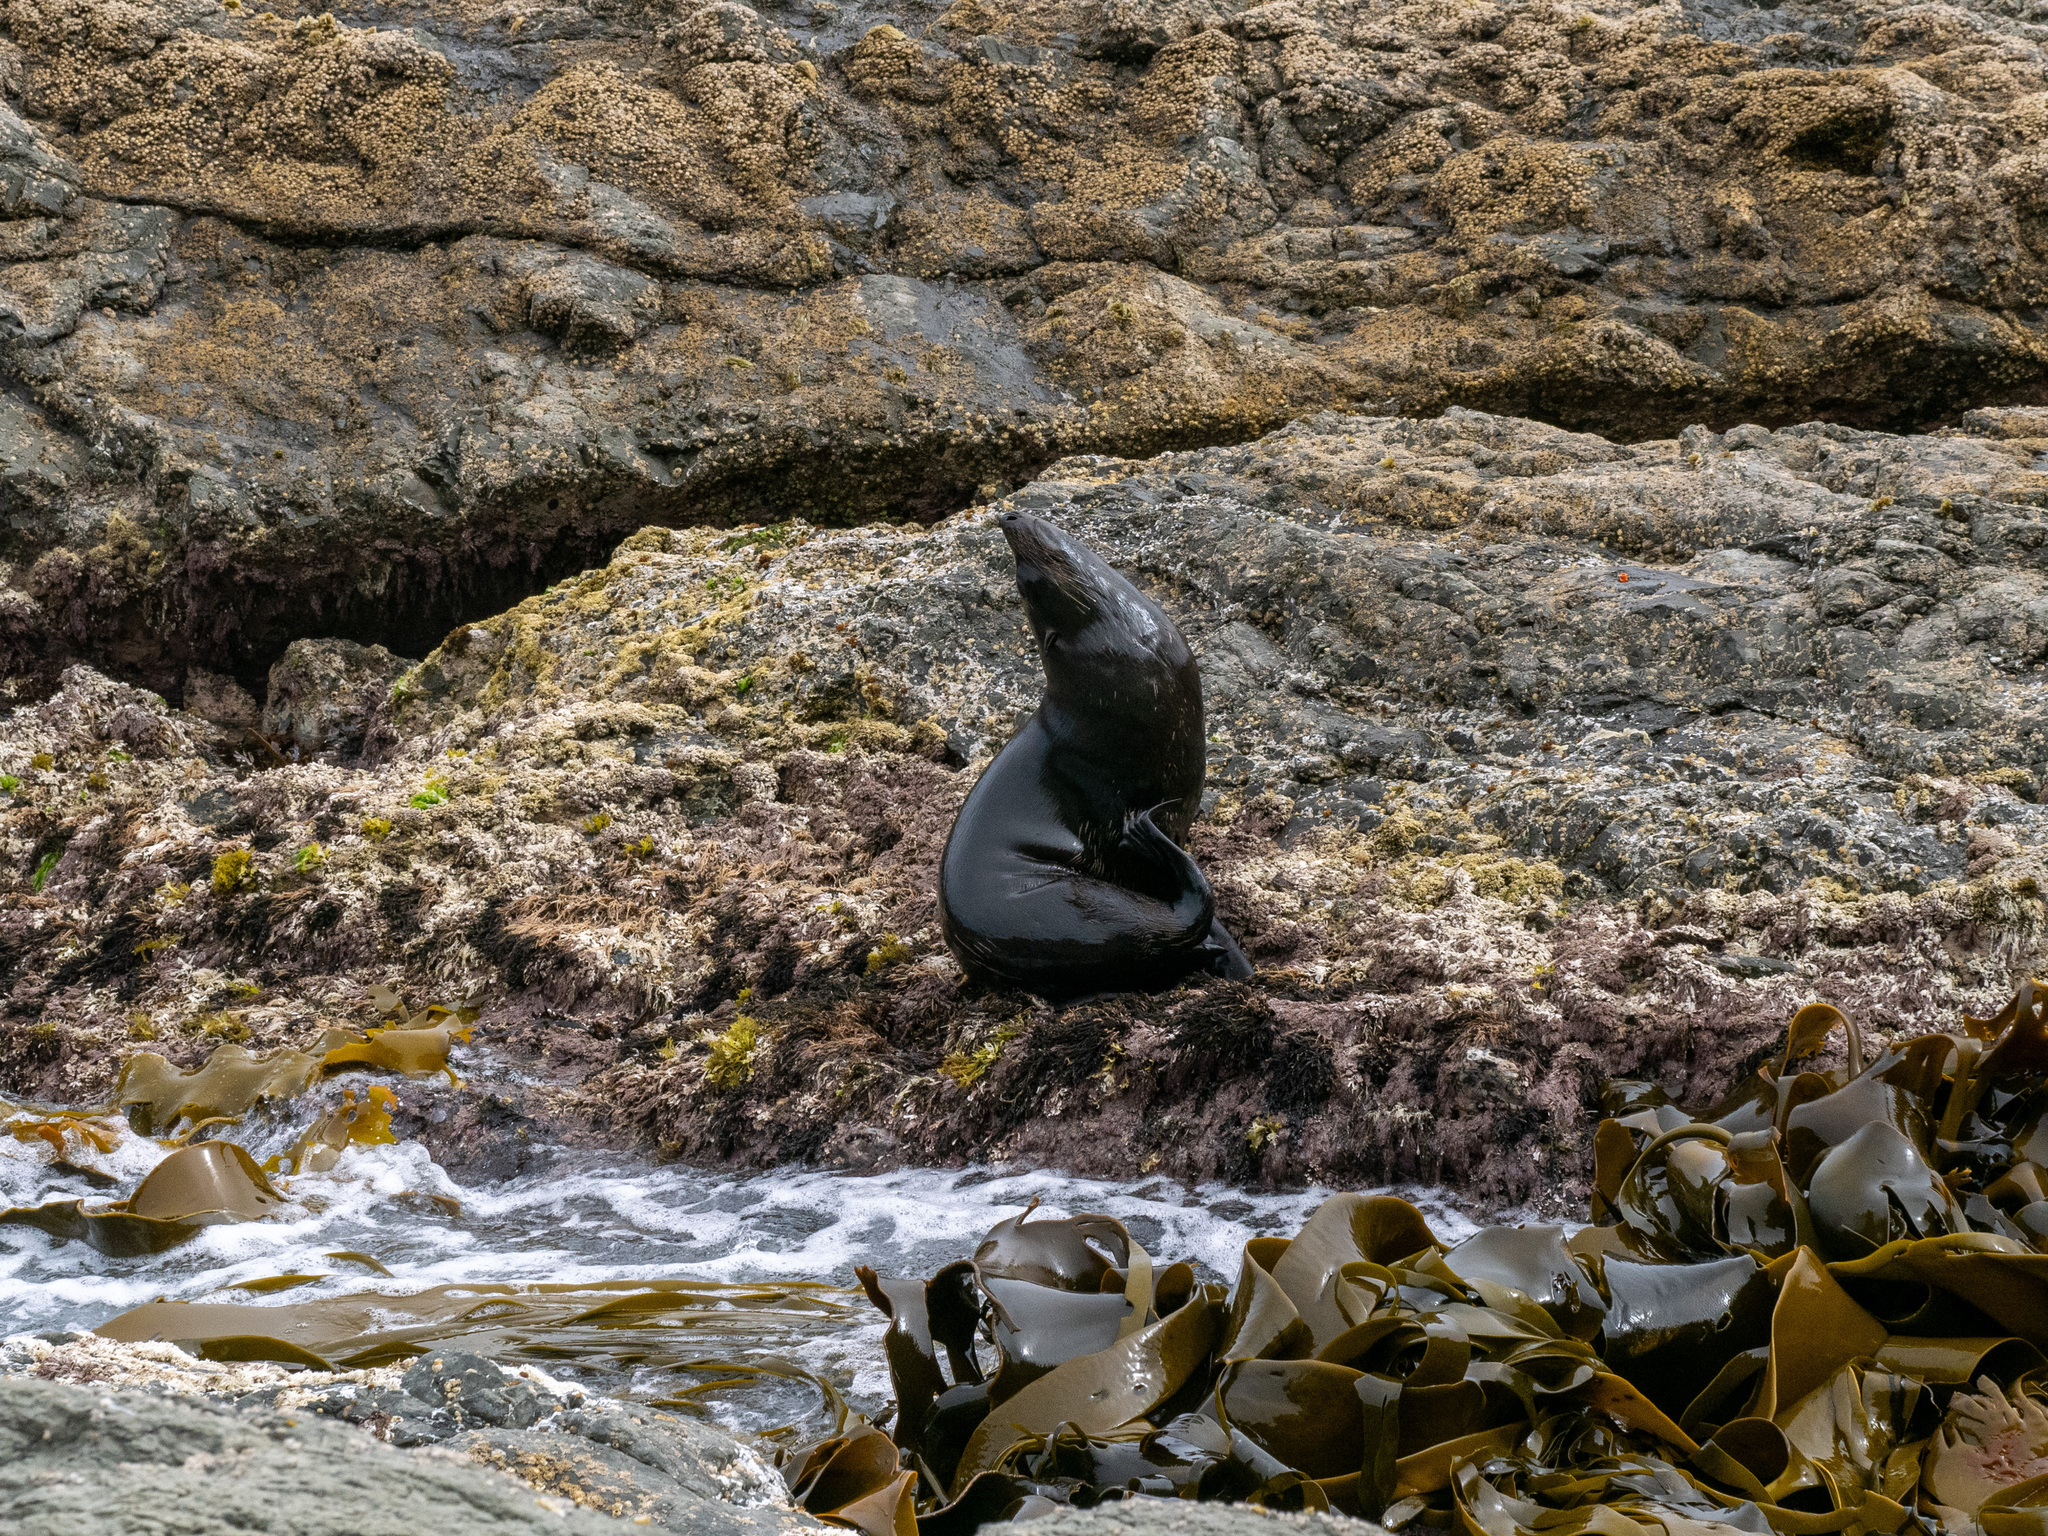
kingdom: Animalia
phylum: Chordata
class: Mammalia
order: Carnivora
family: Otariidae
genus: Arctocephalus
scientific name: Arctocephalus forsteri
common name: New zealand fur seal
